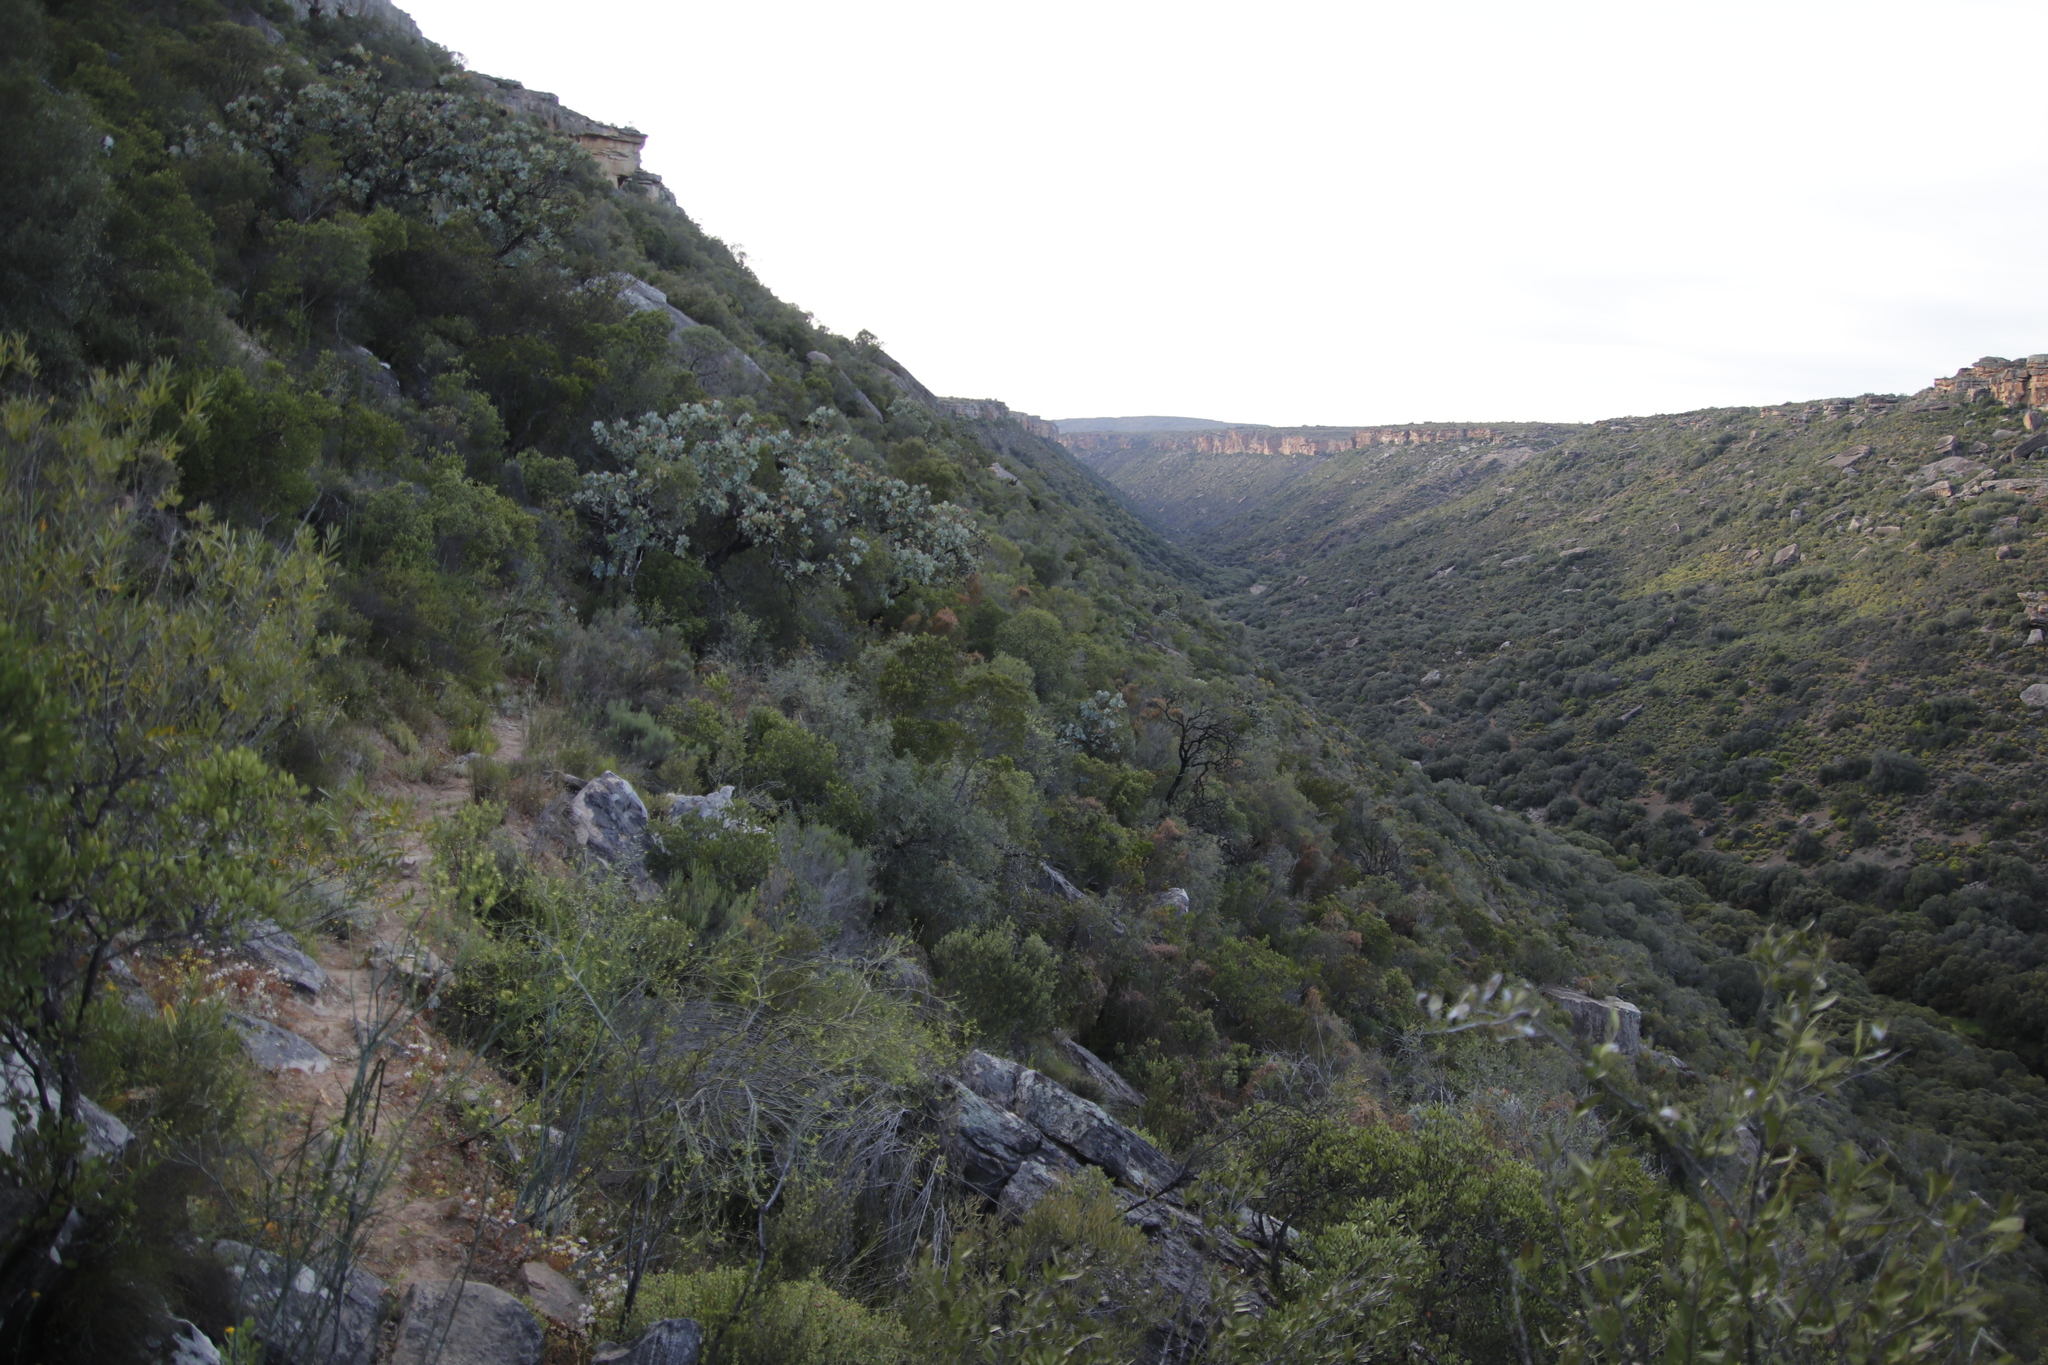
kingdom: Plantae
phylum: Tracheophyta
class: Magnoliopsida
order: Proteales
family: Proteaceae
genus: Protea
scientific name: Protea nitida
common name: Tree protea
